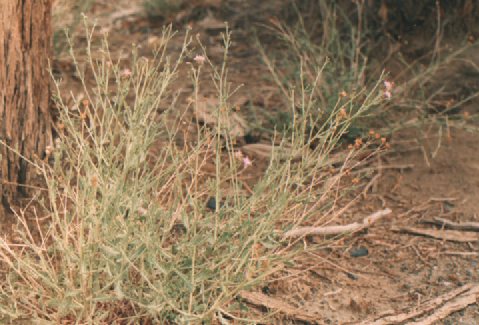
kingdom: Plantae
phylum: Tracheophyta
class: Magnoliopsida
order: Asterales
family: Asteraceae
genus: Asterothamnus
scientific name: Asterothamnus centraliasiaticus
